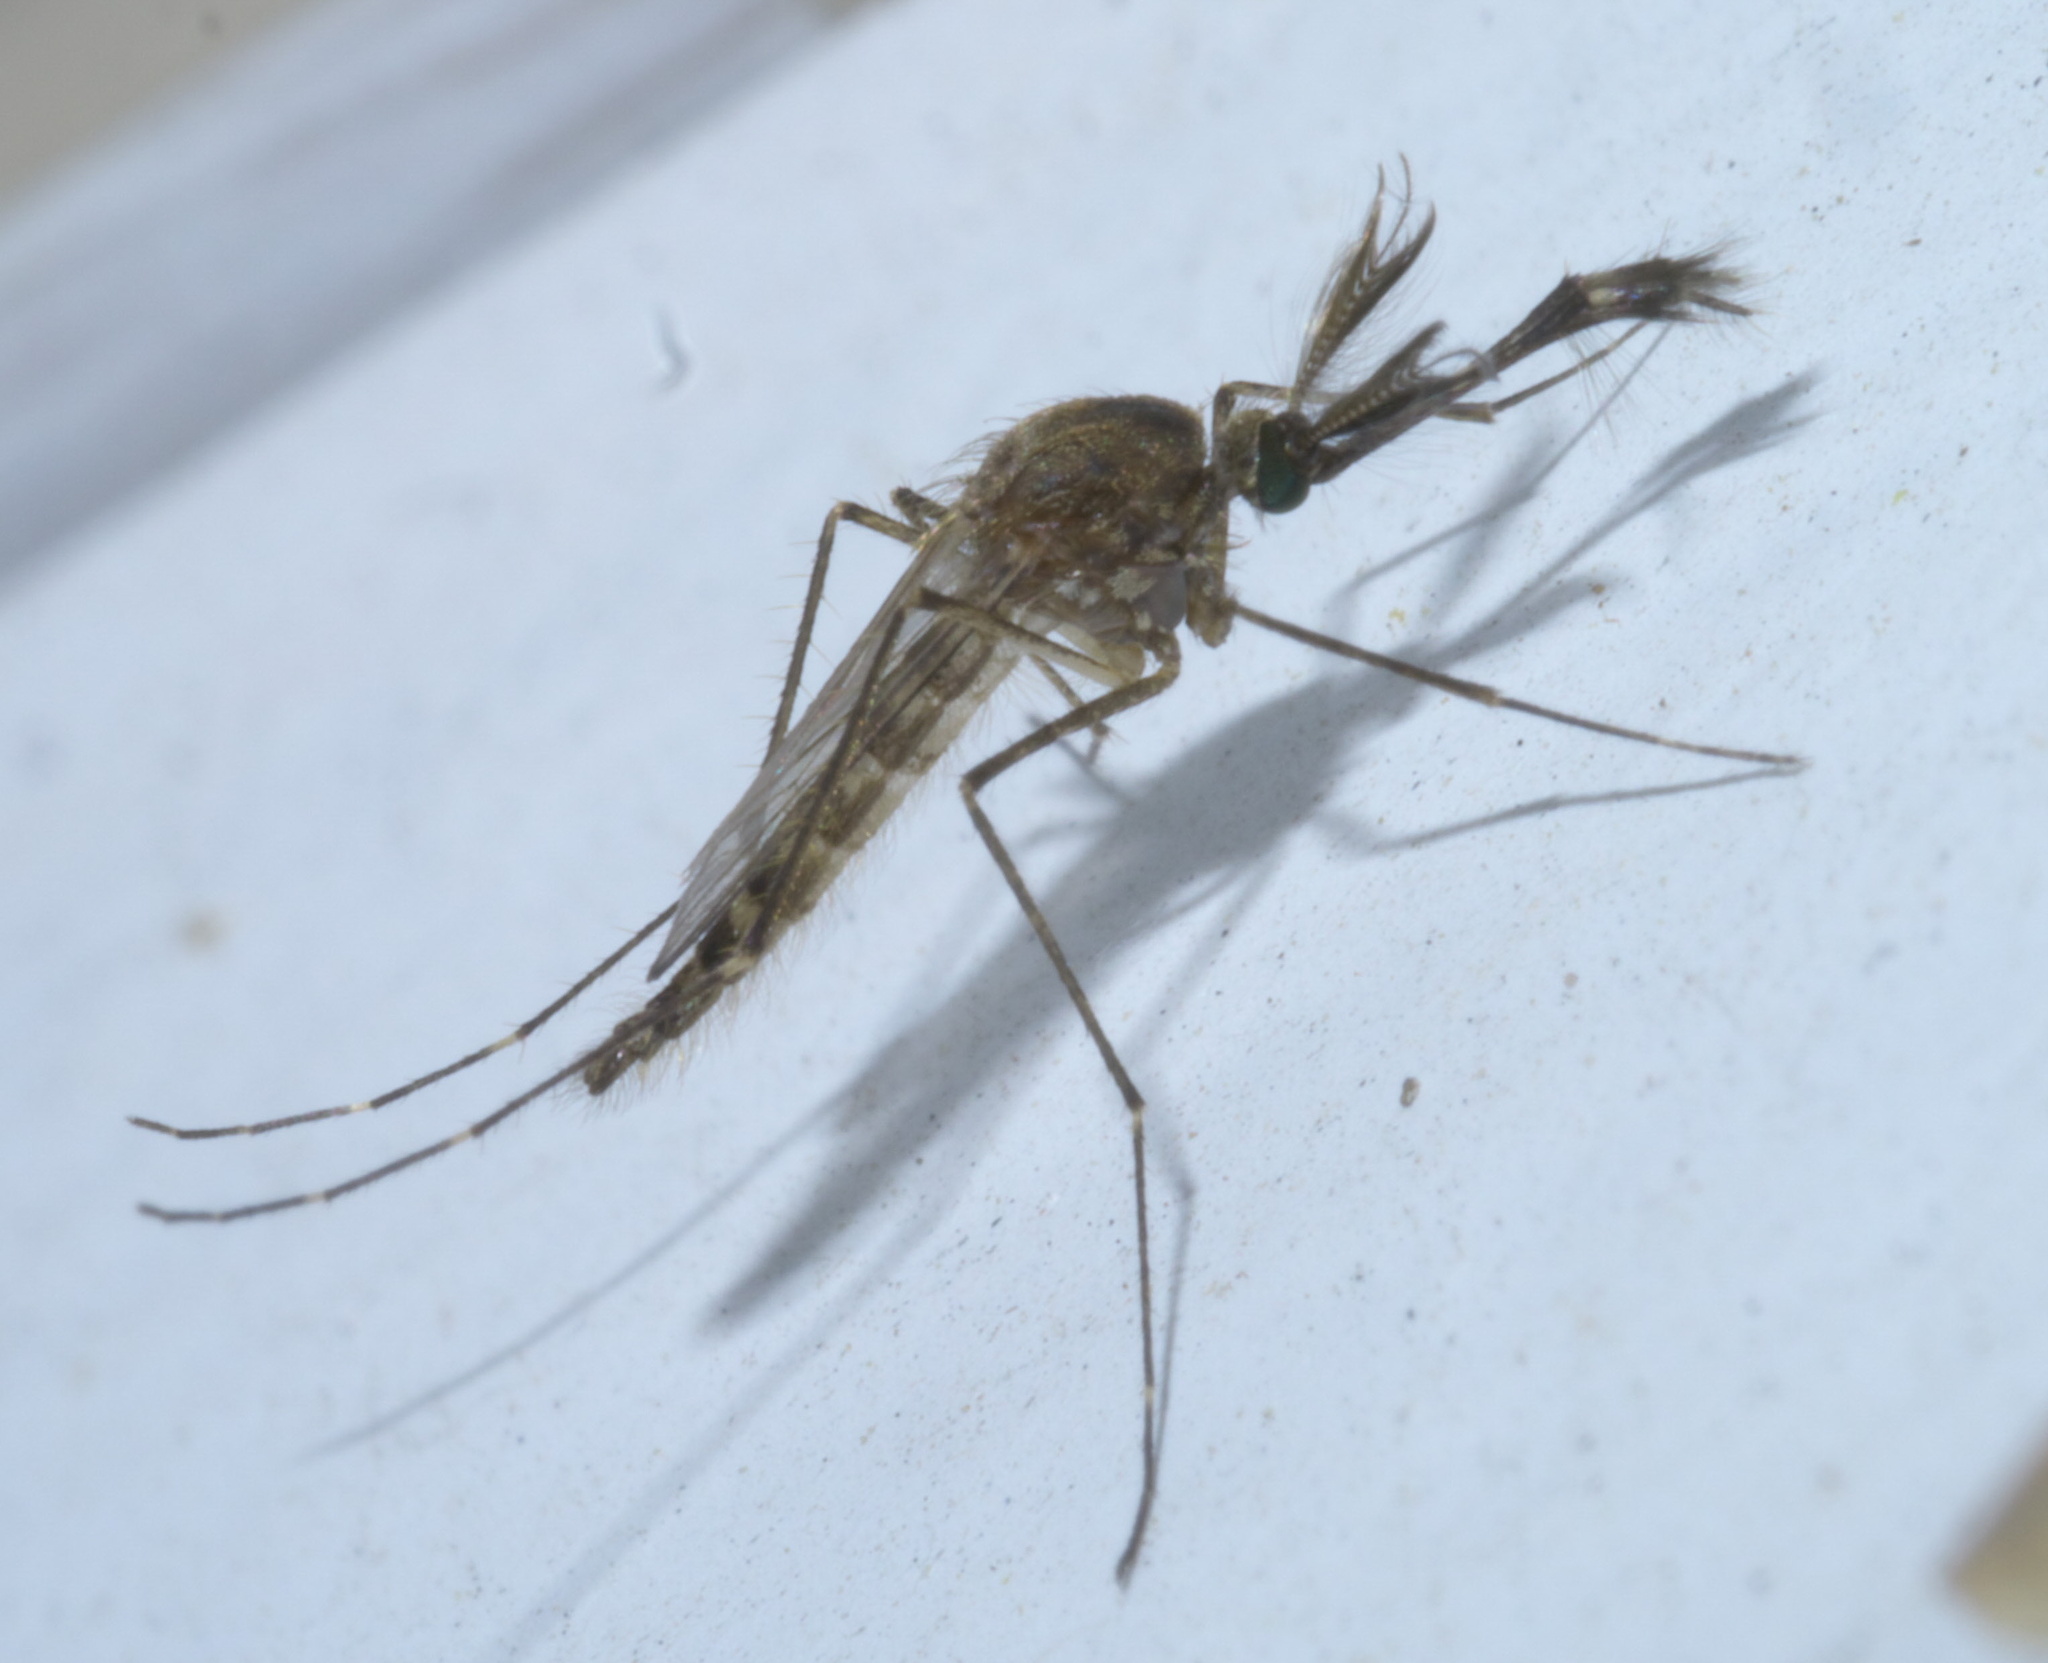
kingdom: Animalia
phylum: Arthropoda
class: Insecta
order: Diptera
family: Culicidae
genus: Aedes
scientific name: Aedes vexans
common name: Inland floodwater mosquito
